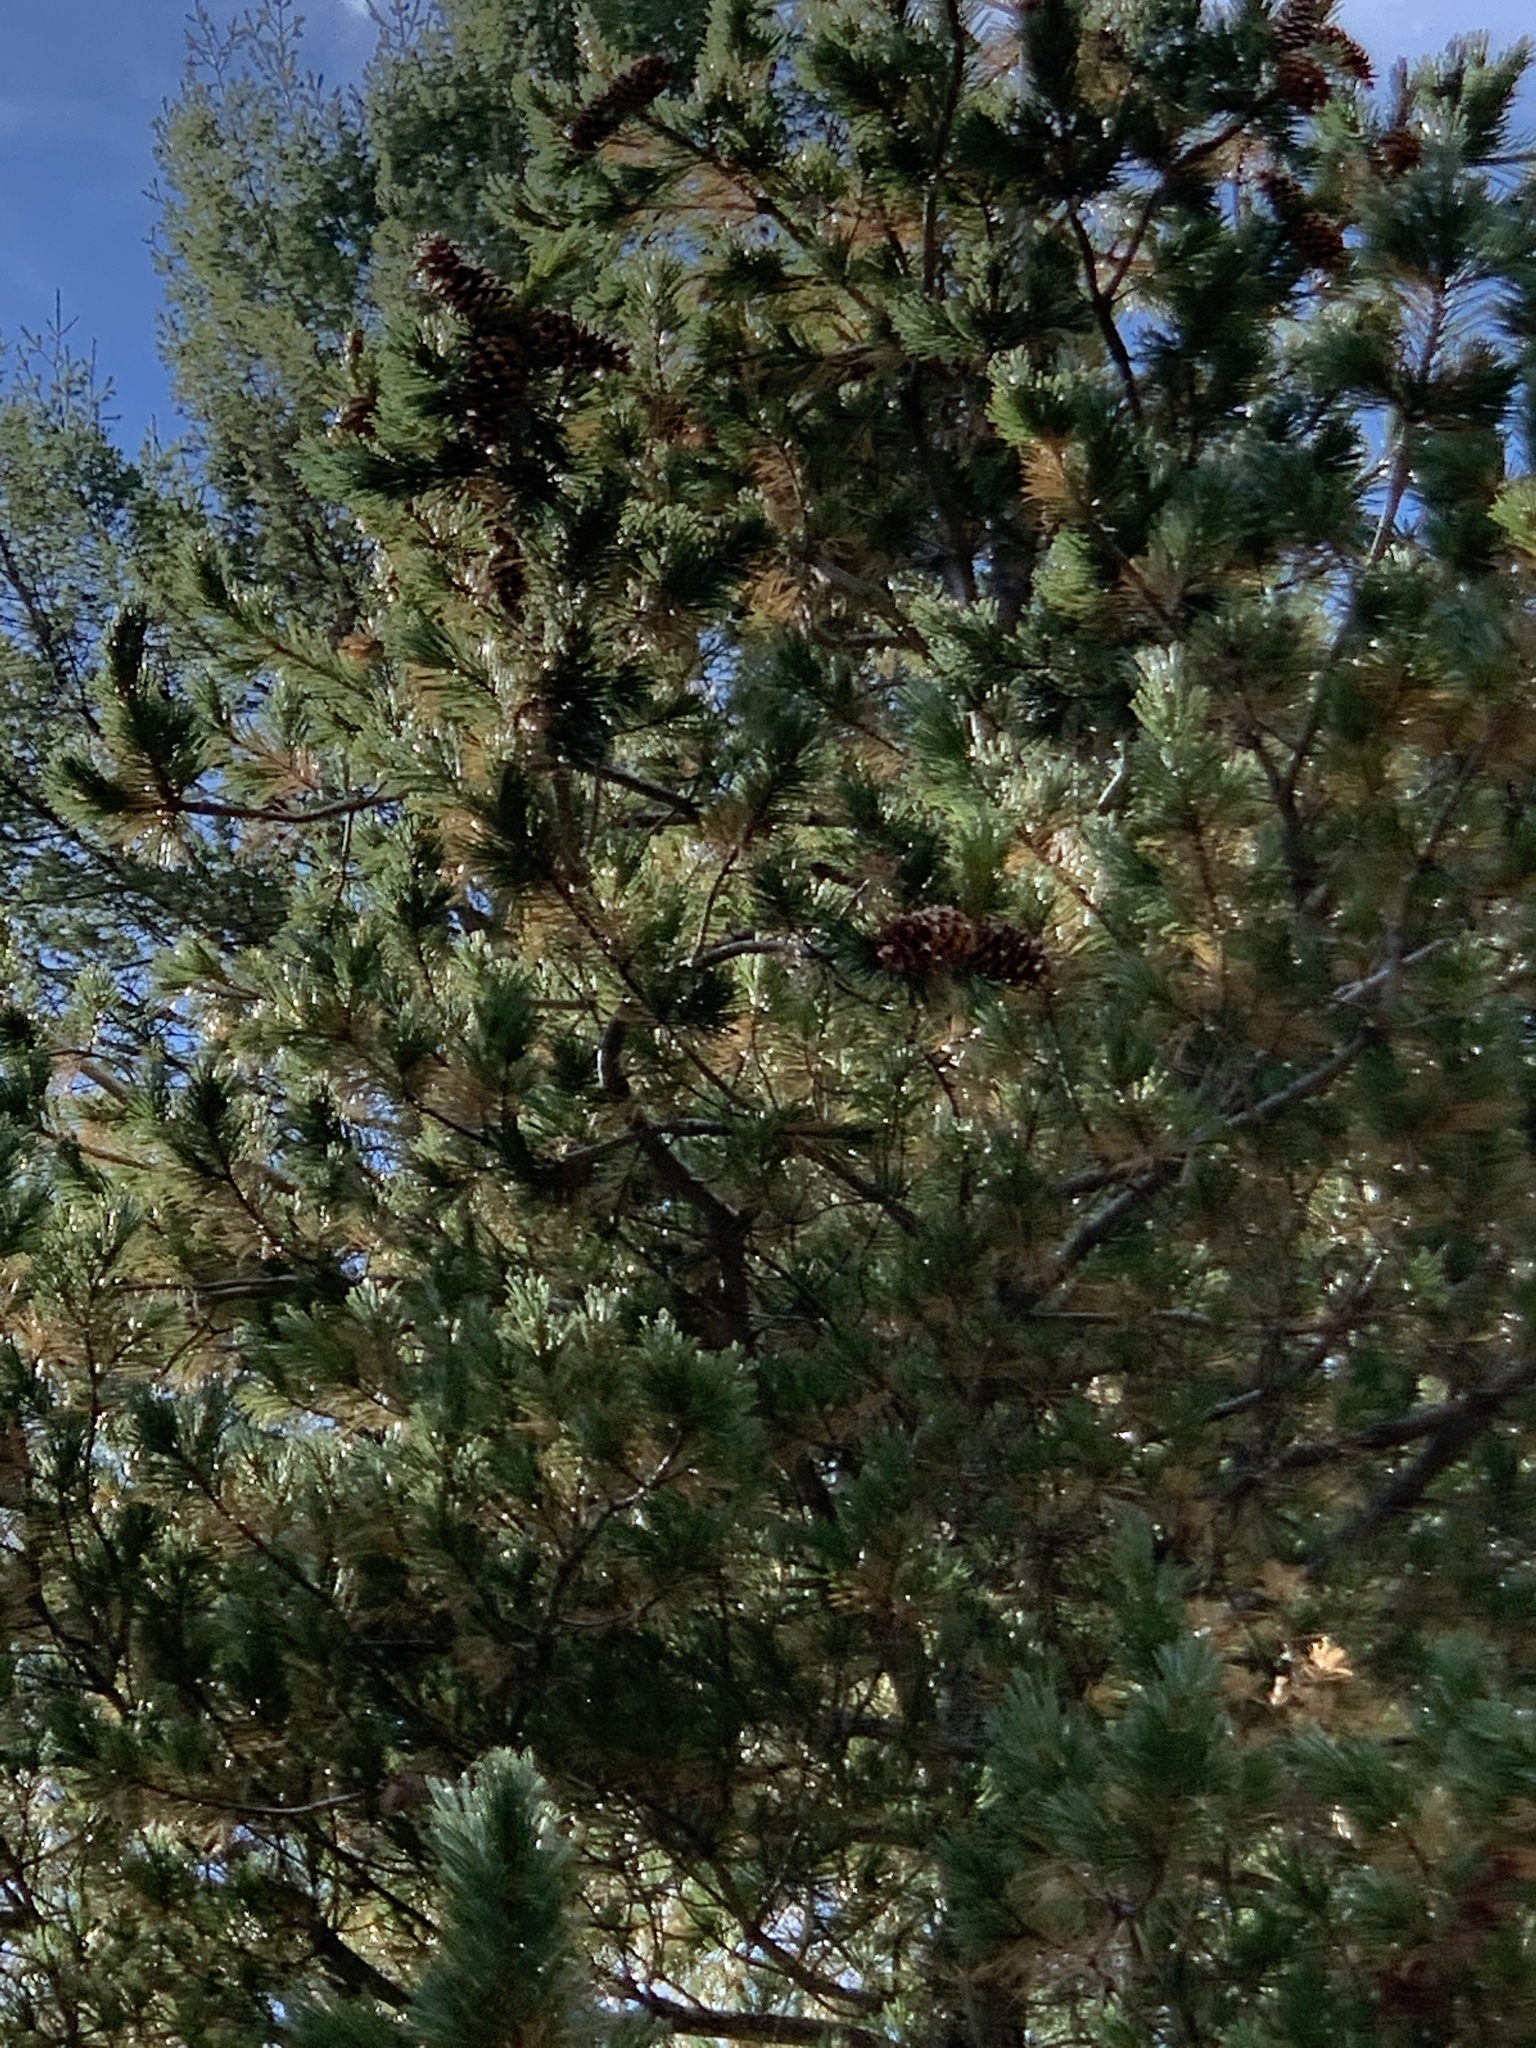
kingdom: Plantae
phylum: Tracheophyta
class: Pinopsida
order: Pinales
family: Pinaceae
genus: Pinus
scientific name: Pinus strobiformis
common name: Southwestern white pine
